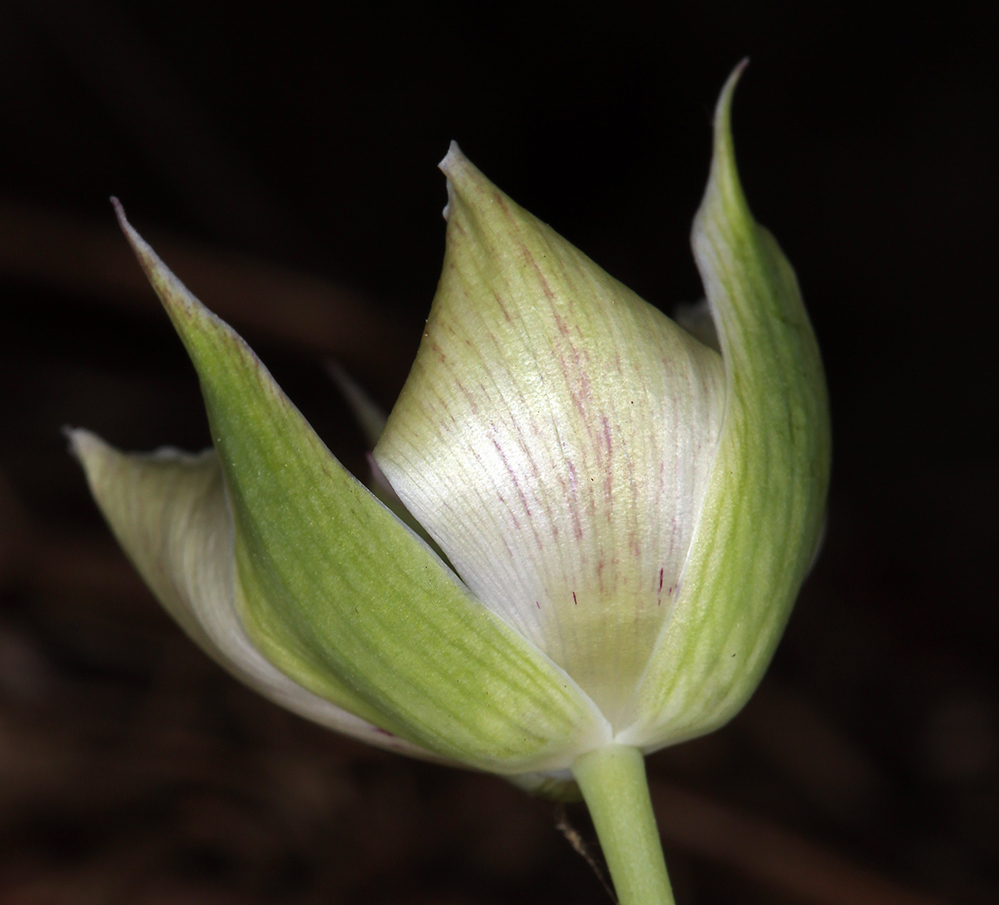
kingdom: Plantae
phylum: Tracheophyta
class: Liliopsida
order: Liliales
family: Liliaceae
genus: Calochortus
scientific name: Calochortus umbellatus
